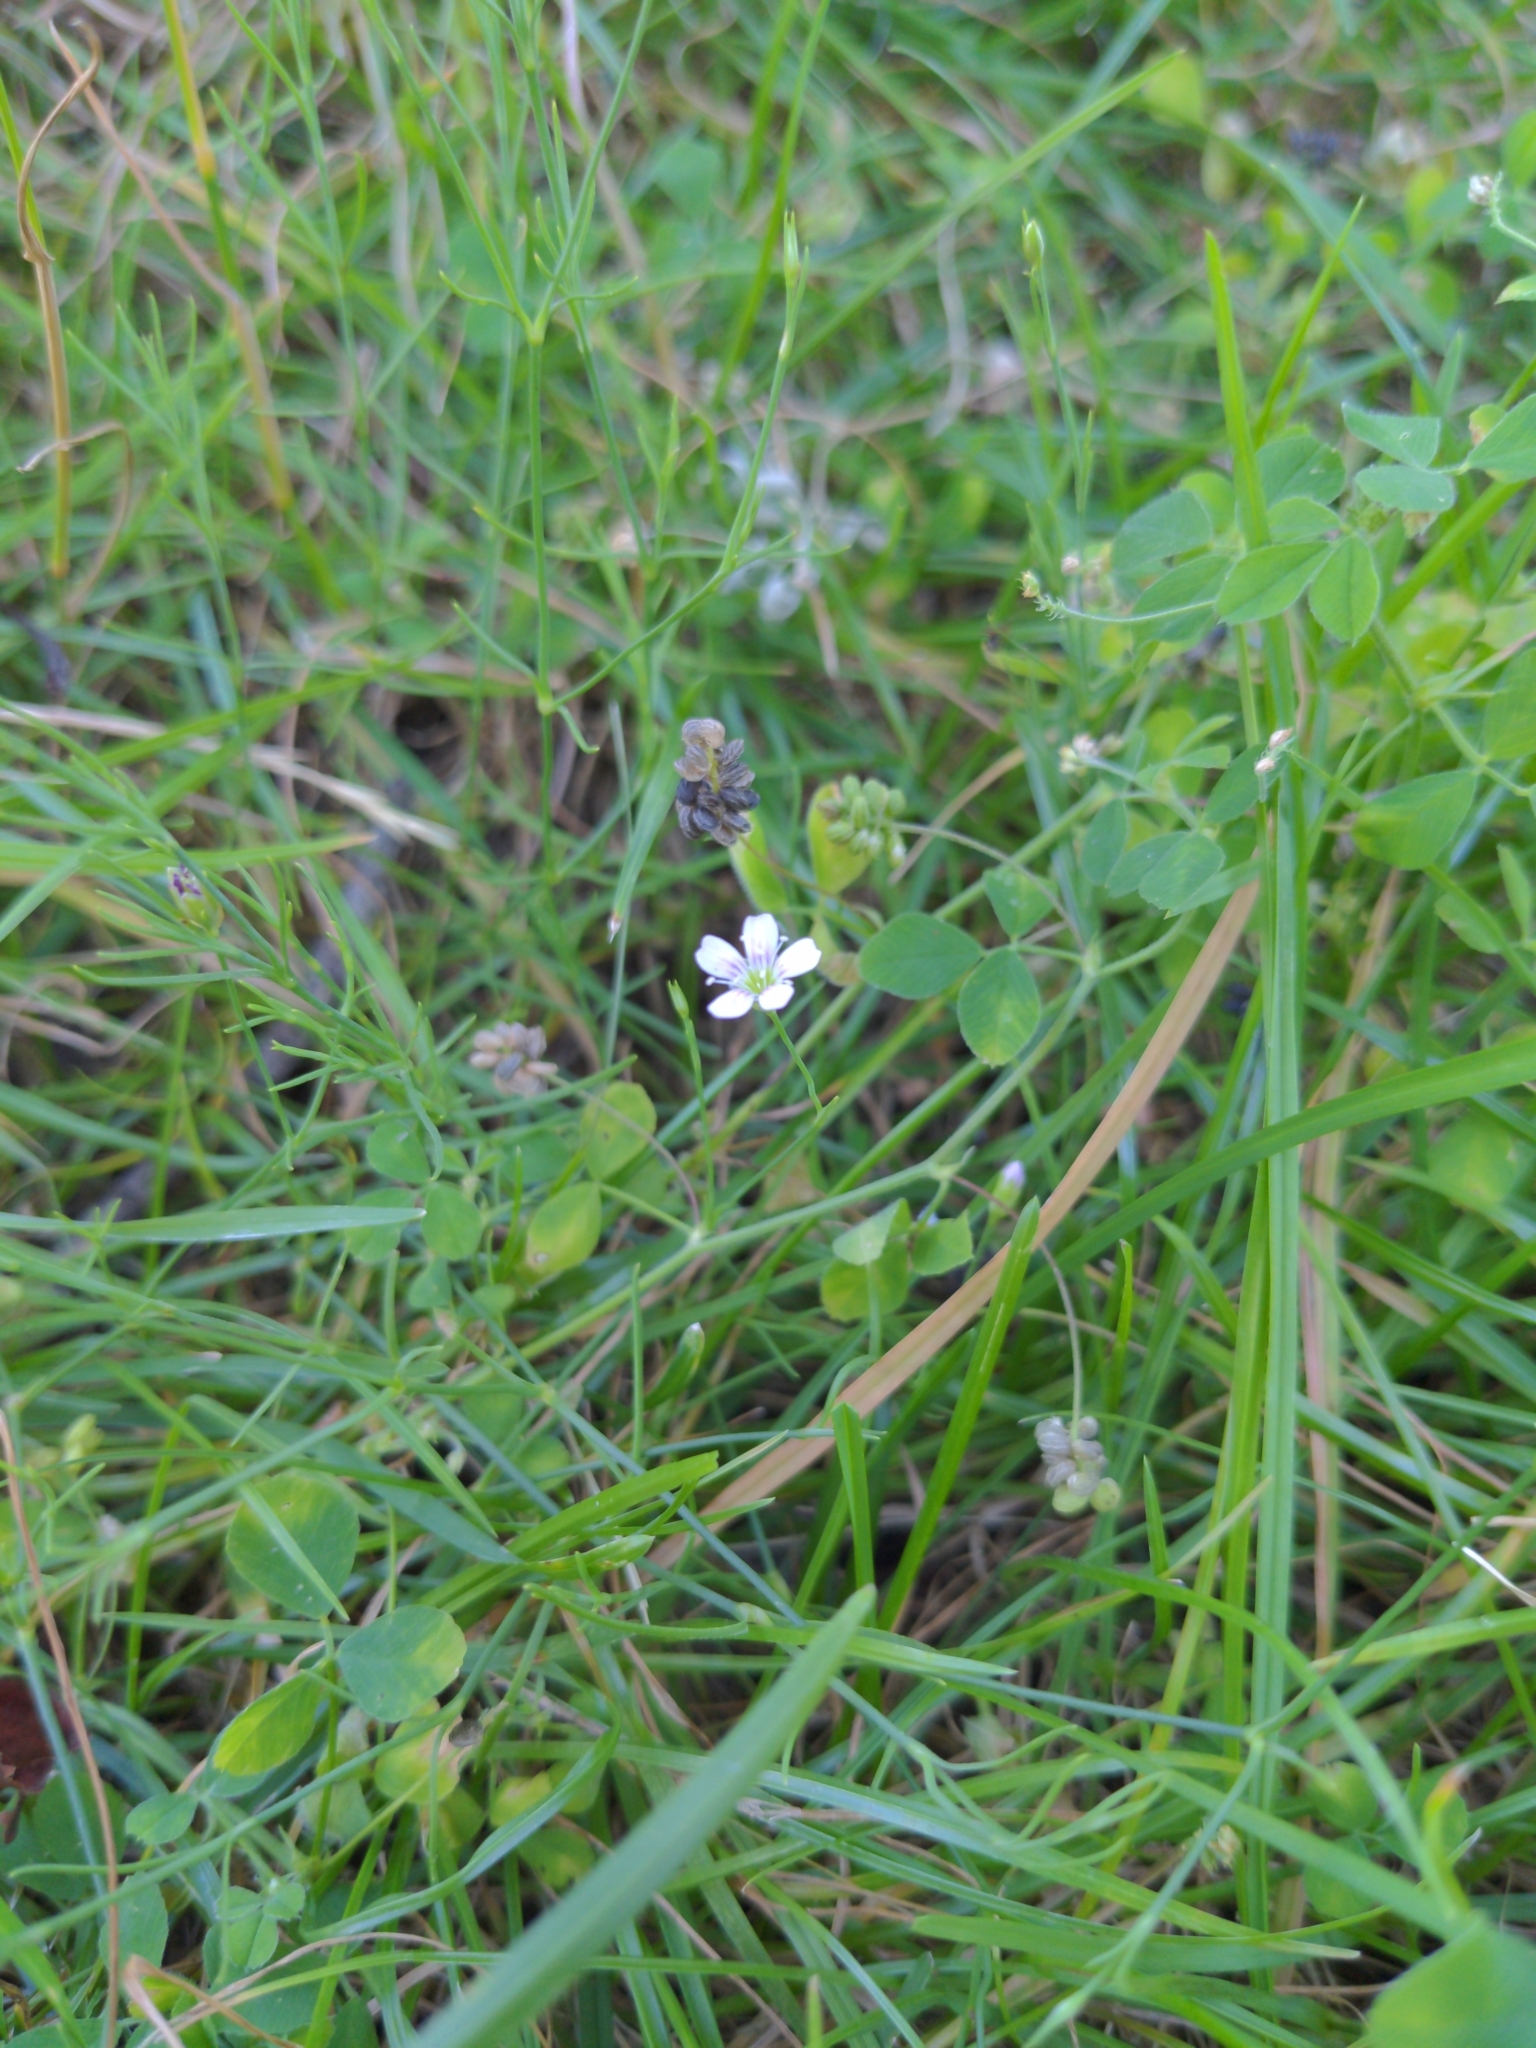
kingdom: Plantae
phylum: Tracheophyta
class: Magnoliopsida
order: Caryophyllales
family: Caryophyllaceae
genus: Petrorhagia
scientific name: Petrorhagia saxifraga
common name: Tunicflower
